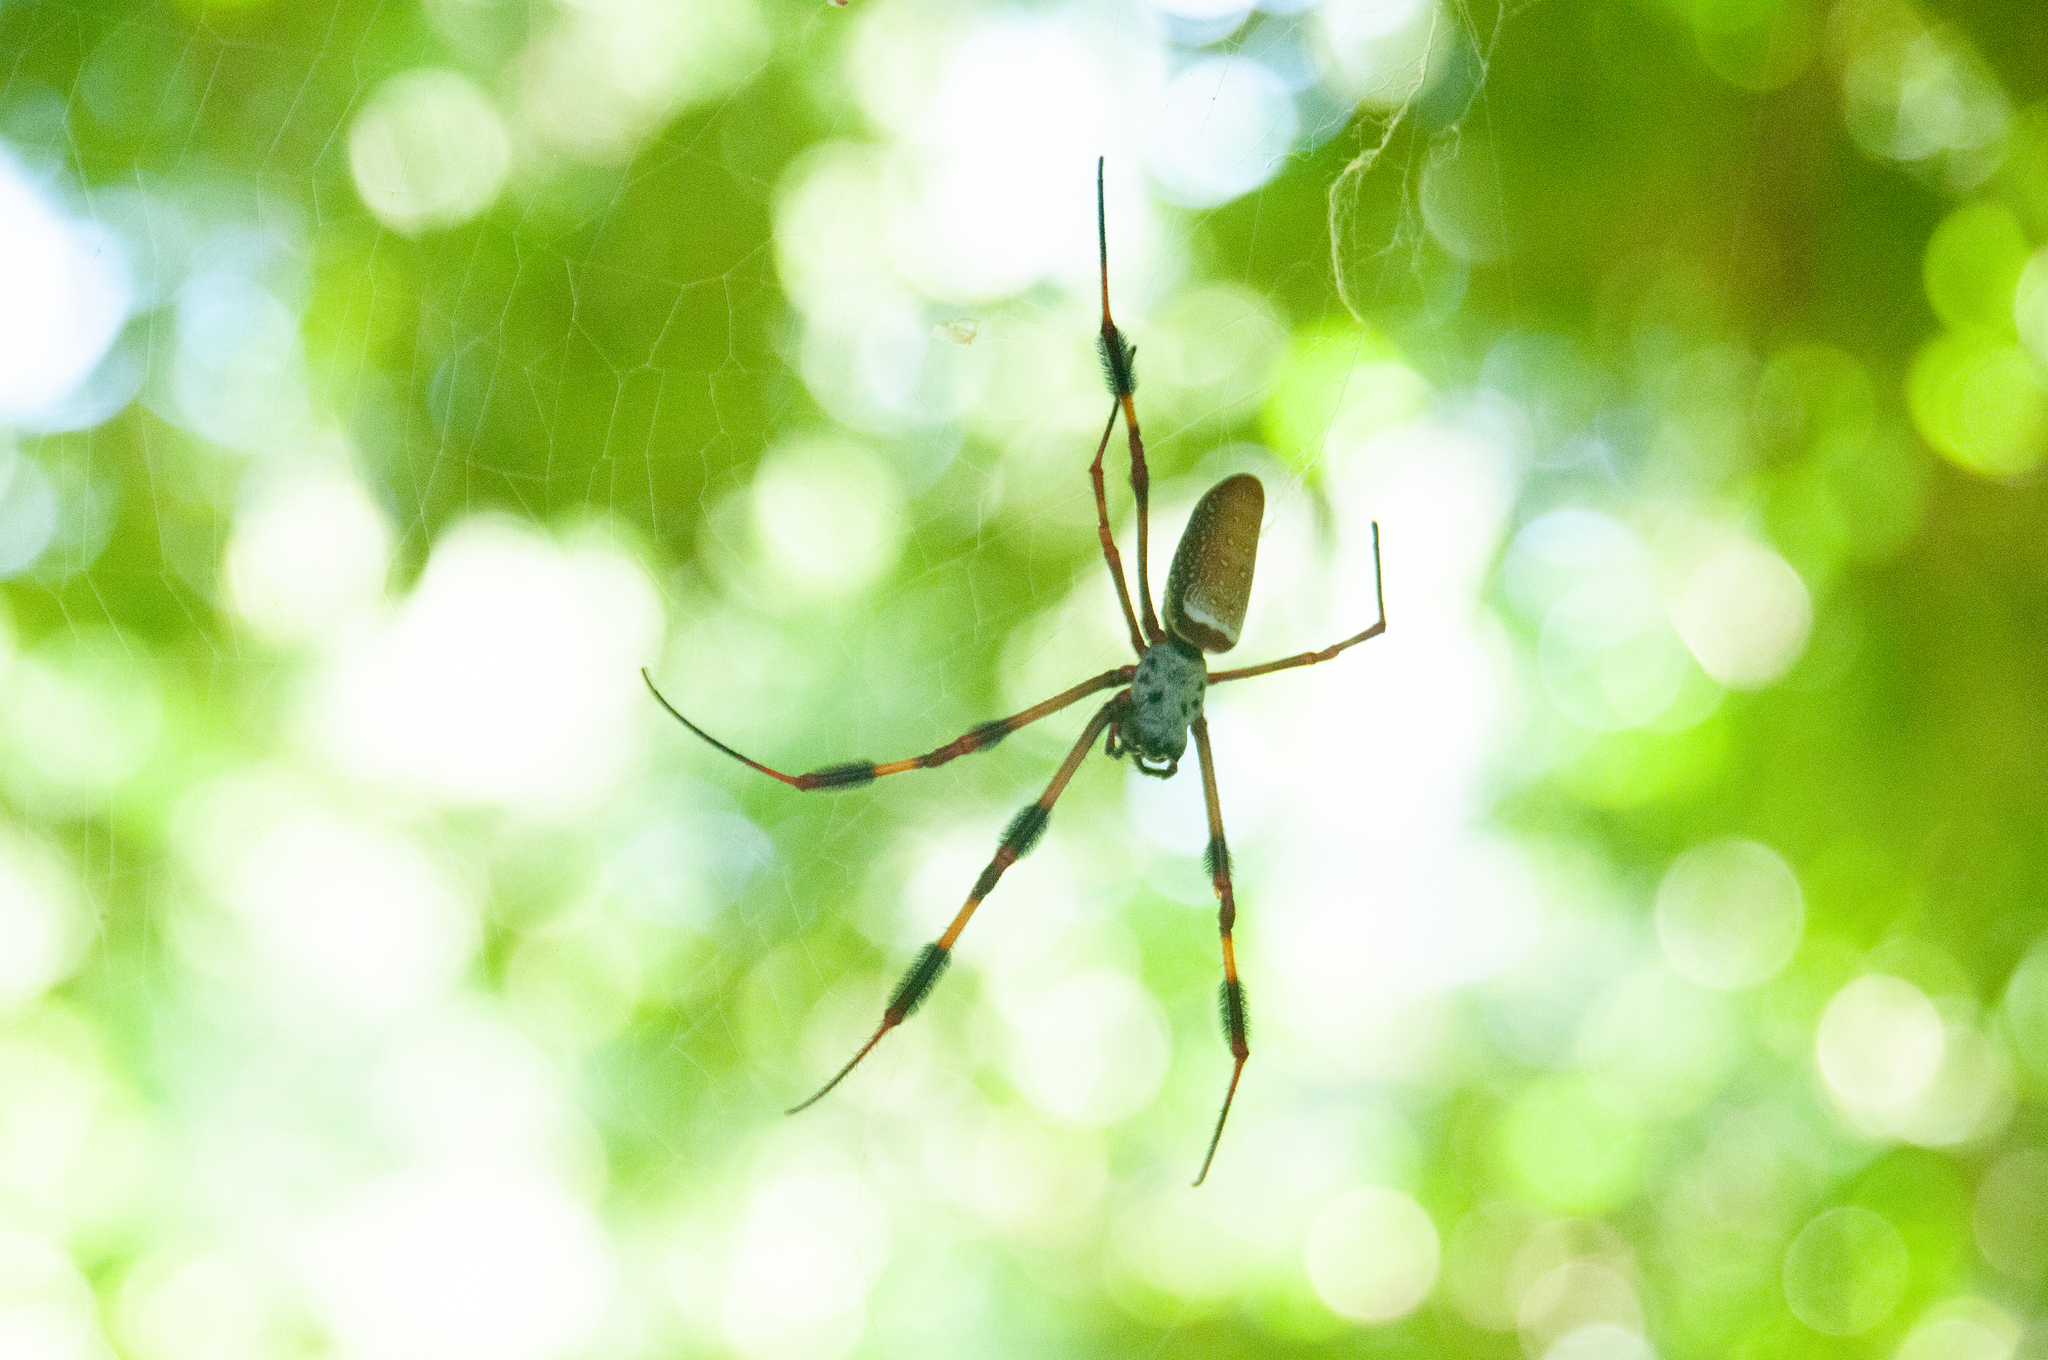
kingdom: Animalia
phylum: Arthropoda
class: Arachnida
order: Araneae
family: Araneidae
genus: Trichonephila
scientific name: Trichonephila clavipes
